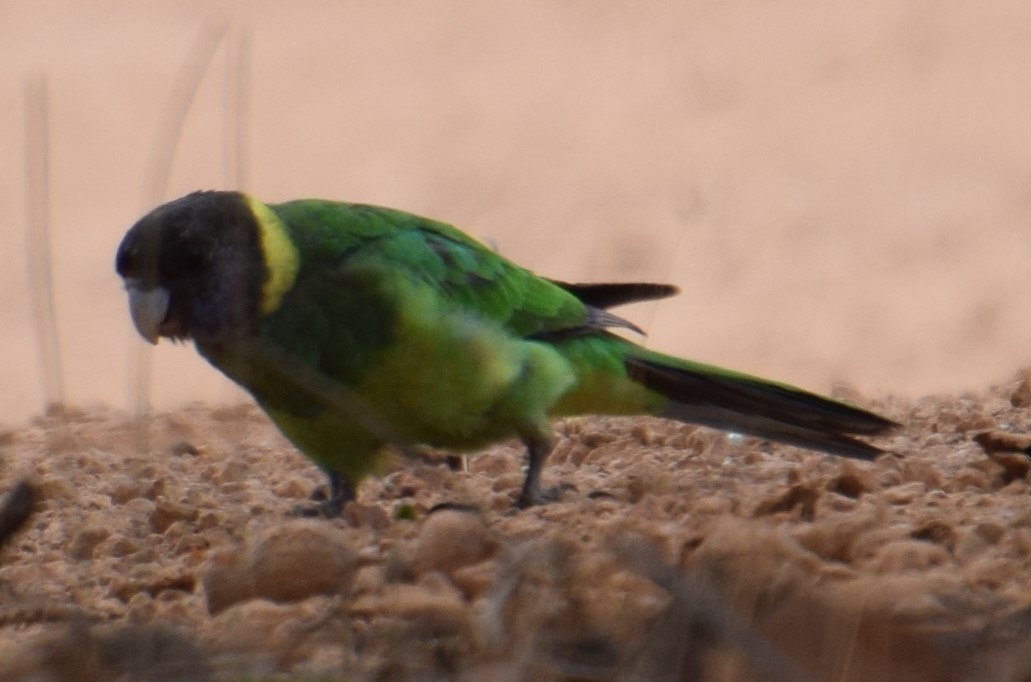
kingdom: Animalia
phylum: Chordata
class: Aves
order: Psittaciformes
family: Psittacidae
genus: Barnardius
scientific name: Barnardius zonarius
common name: Australian ringneck
